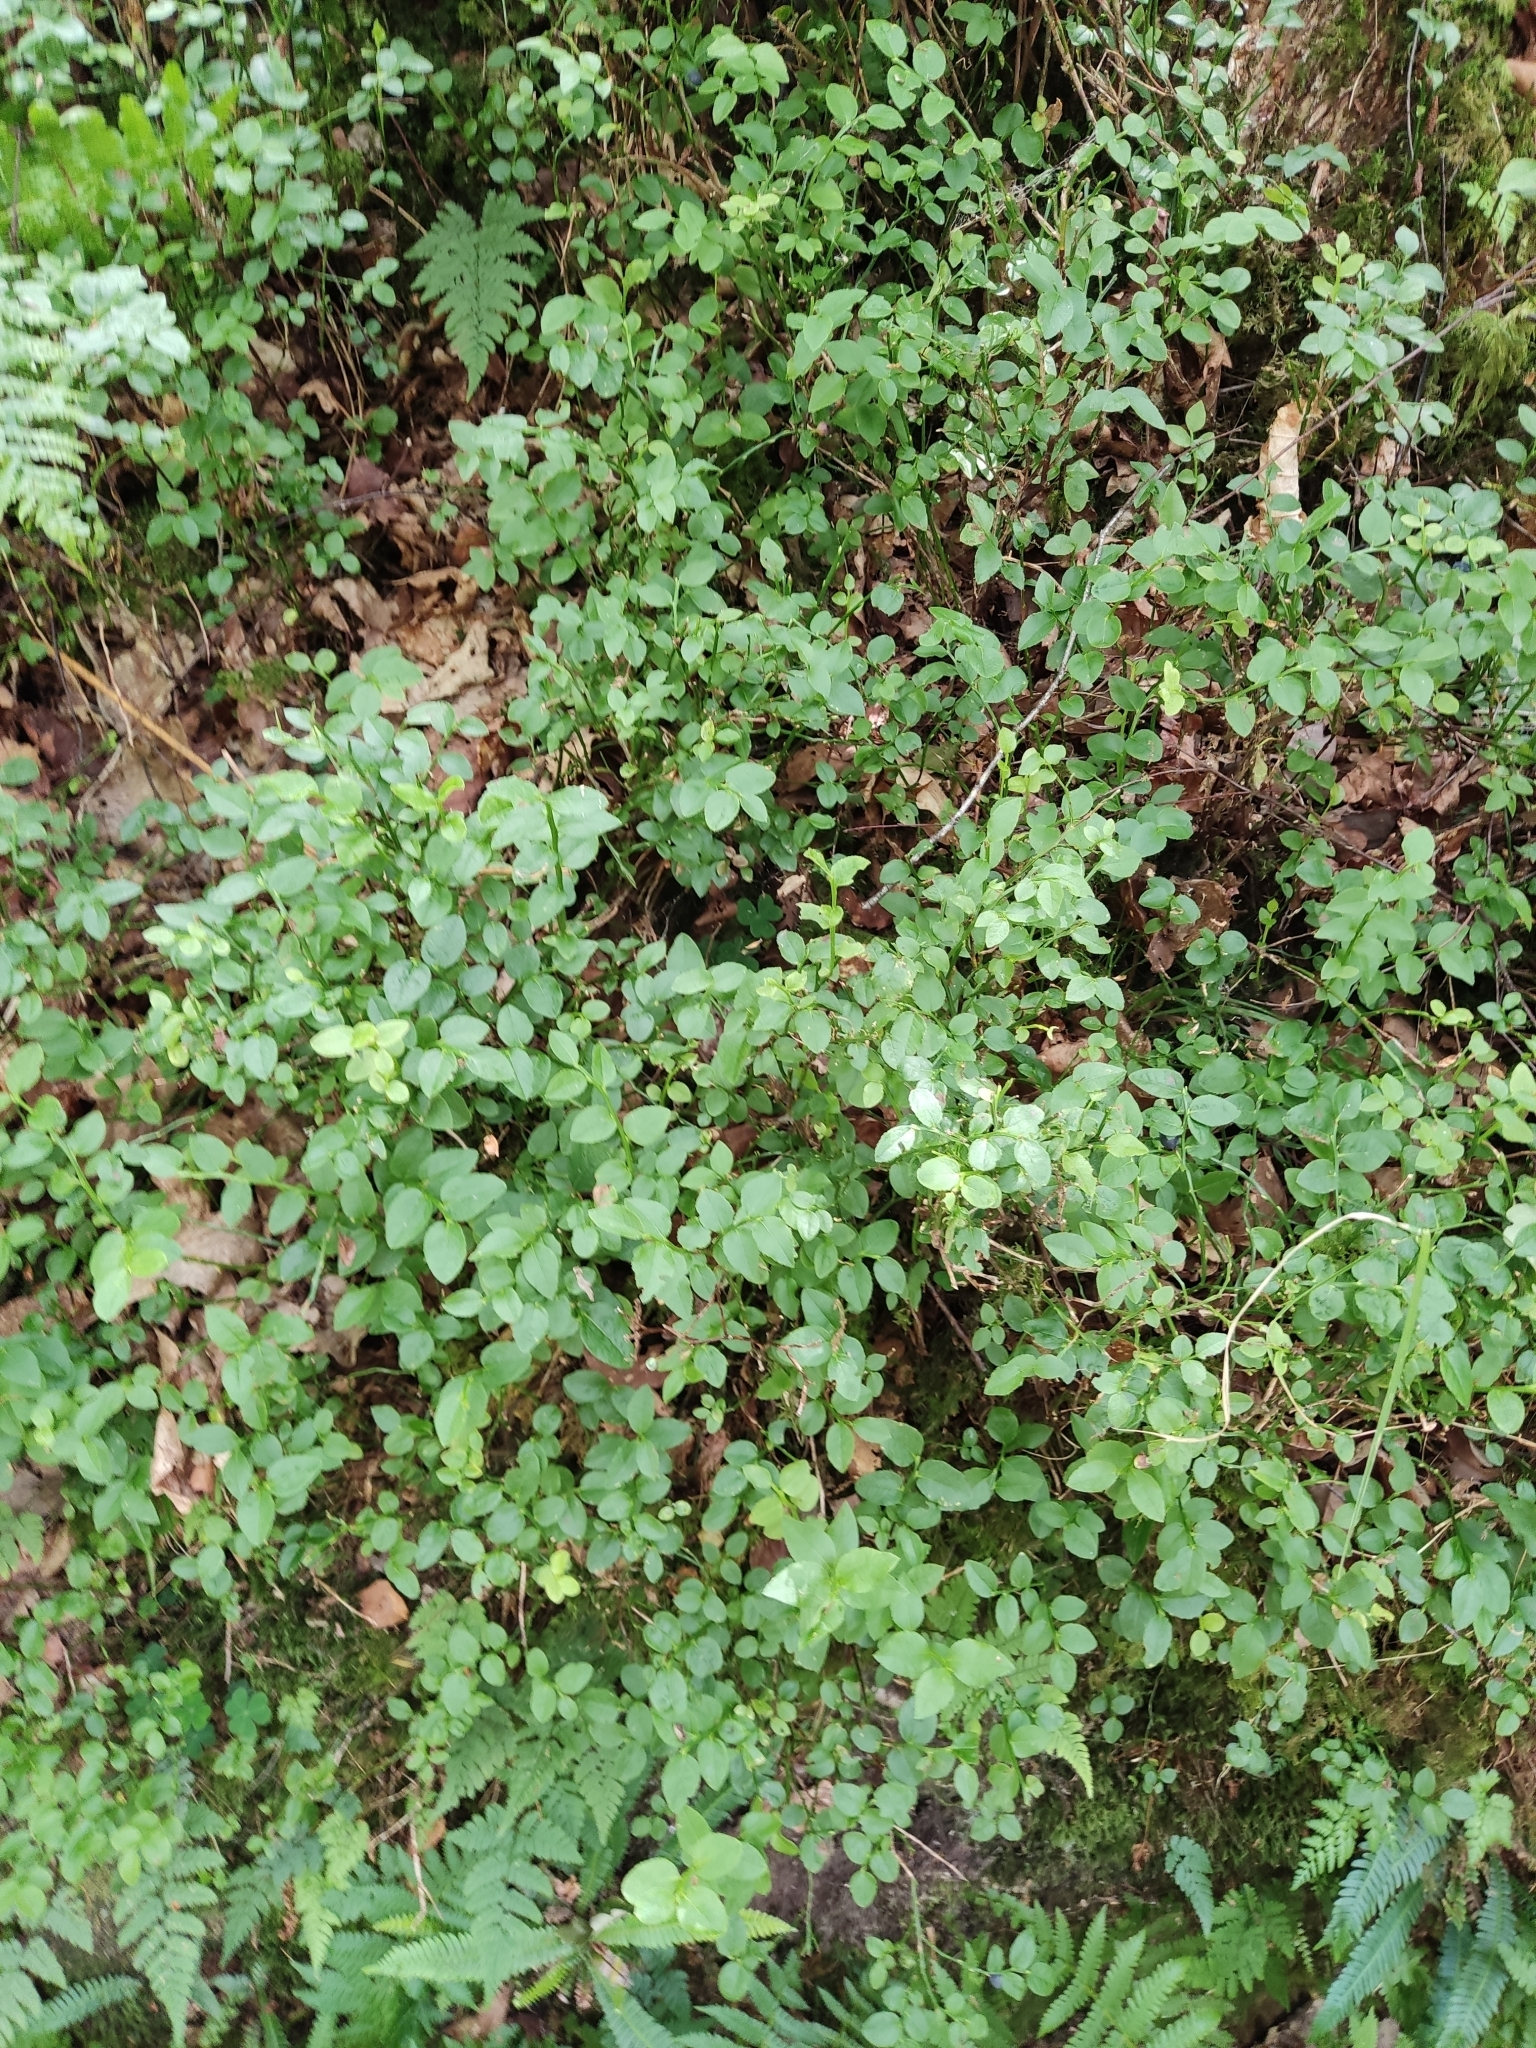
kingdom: Plantae
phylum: Tracheophyta
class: Magnoliopsida
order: Ericales
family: Ericaceae
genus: Vaccinium
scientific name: Vaccinium myrtillus
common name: Bilberry
